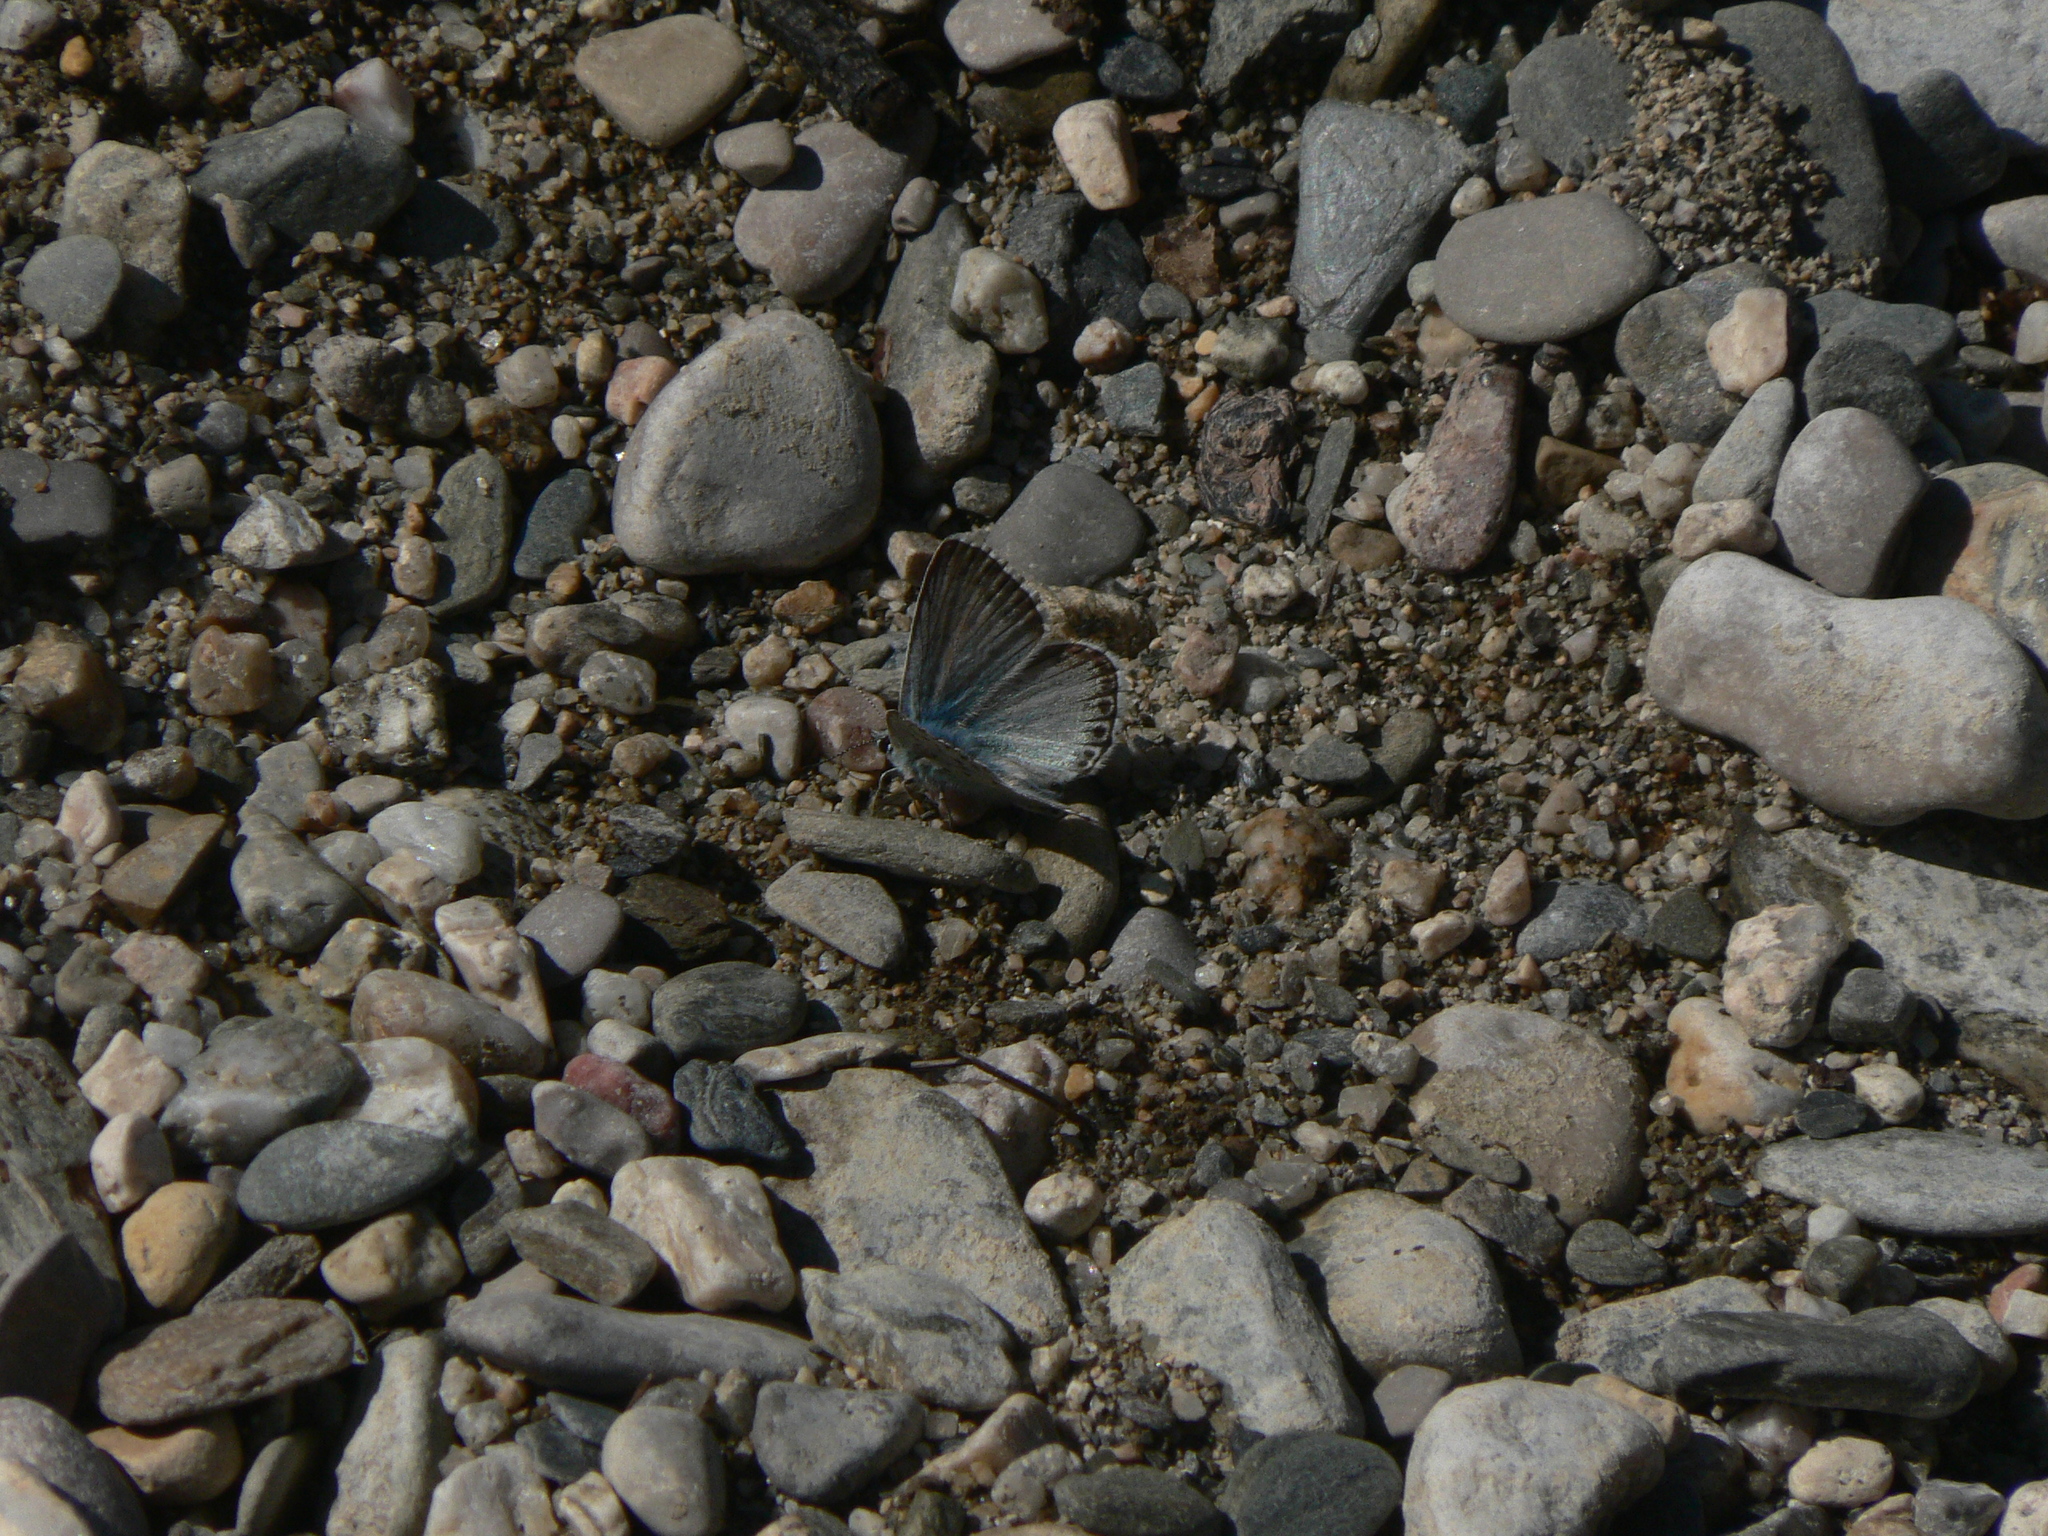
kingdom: Animalia
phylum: Arthropoda
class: Insecta
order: Lepidoptera
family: Lycaenidae
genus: Lysandra
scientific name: Lysandra hispana
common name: Provence chalkhill blue
